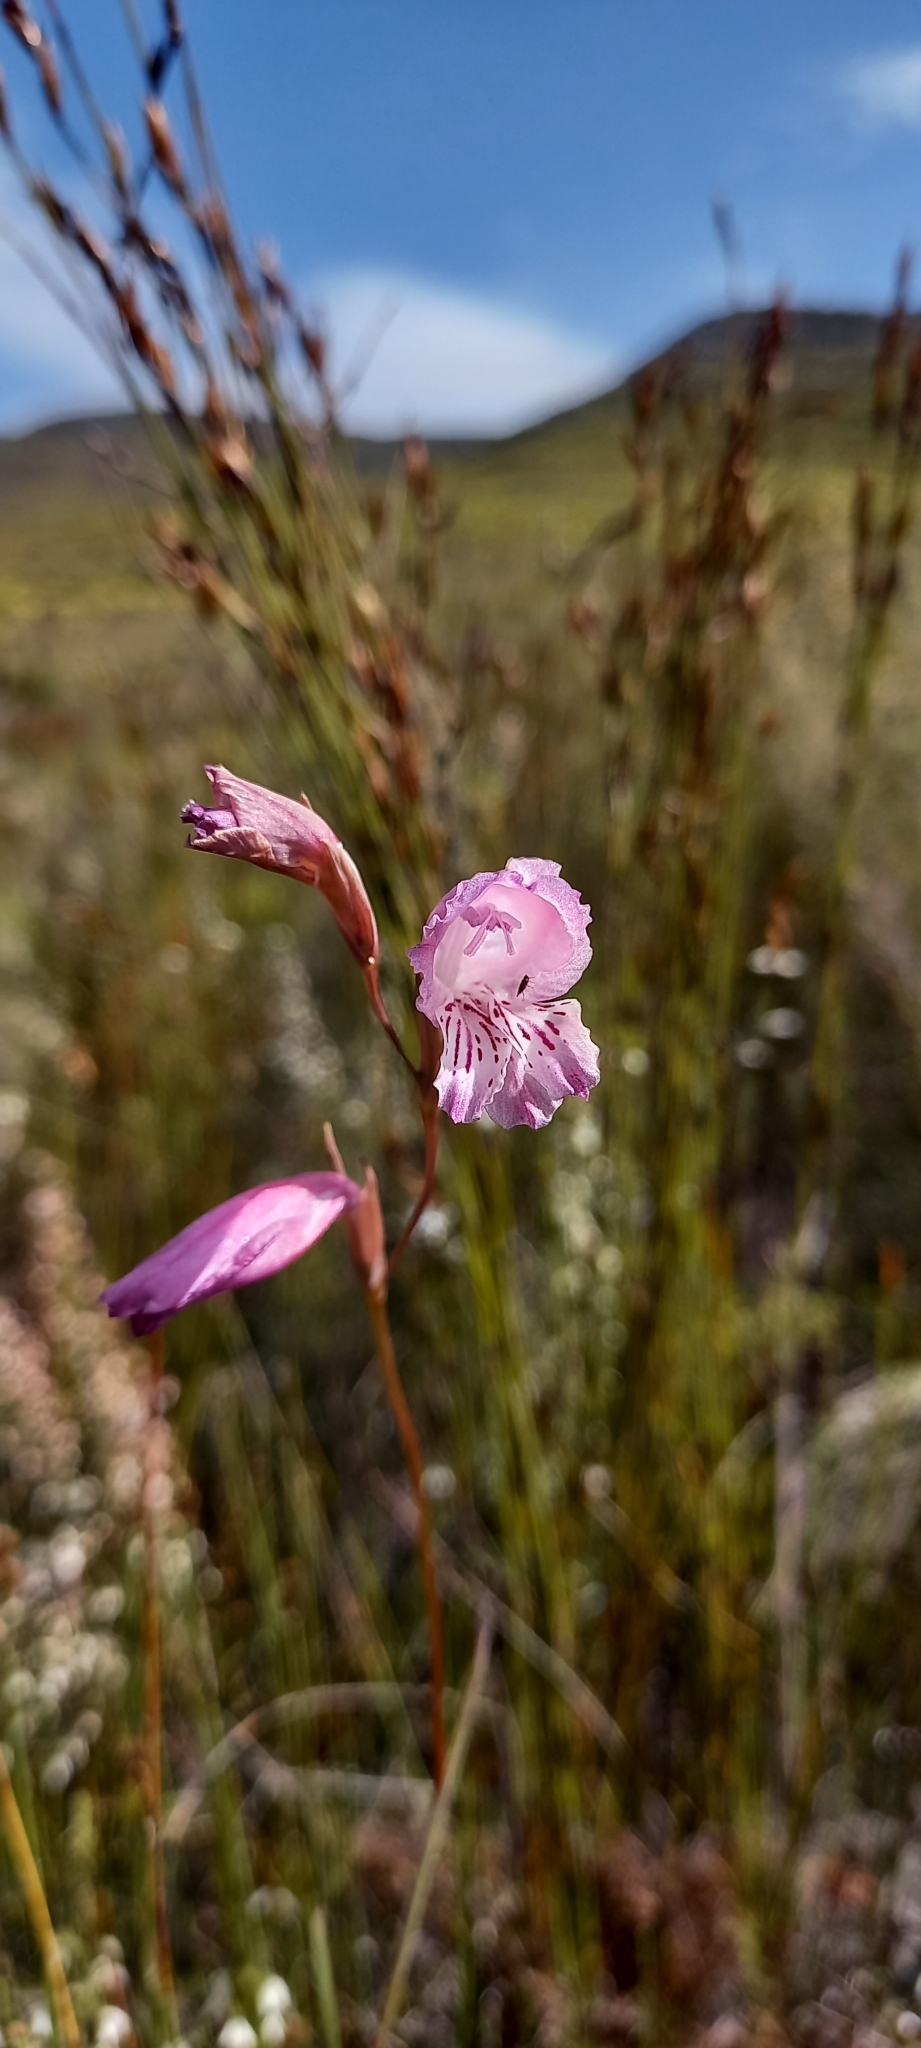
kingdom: Plantae
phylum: Tracheophyta
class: Liliopsida
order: Asparagales
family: Iridaceae
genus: Gladiolus
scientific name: Gladiolus hirsutus
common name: Small pink afrikaner
